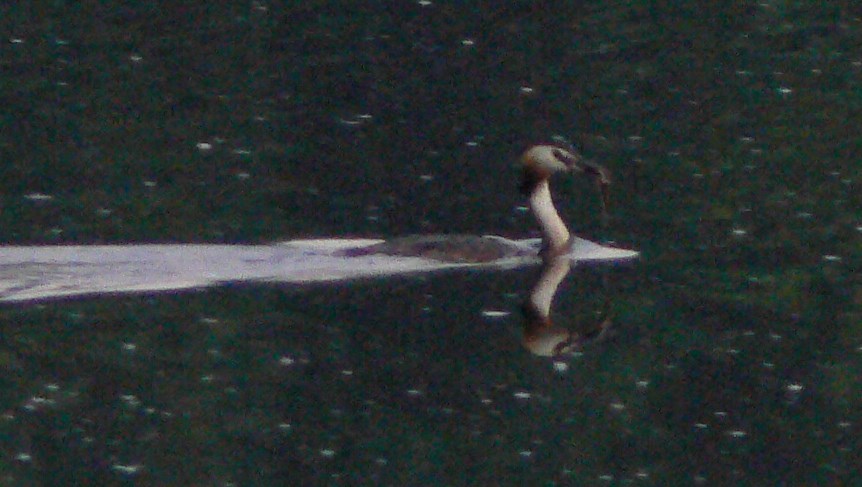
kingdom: Animalia
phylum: Chordata
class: Aves
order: Podicipediformes
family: Podicipedidae
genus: Podiceps
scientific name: Podiceps cristatus
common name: Great crested grebe
